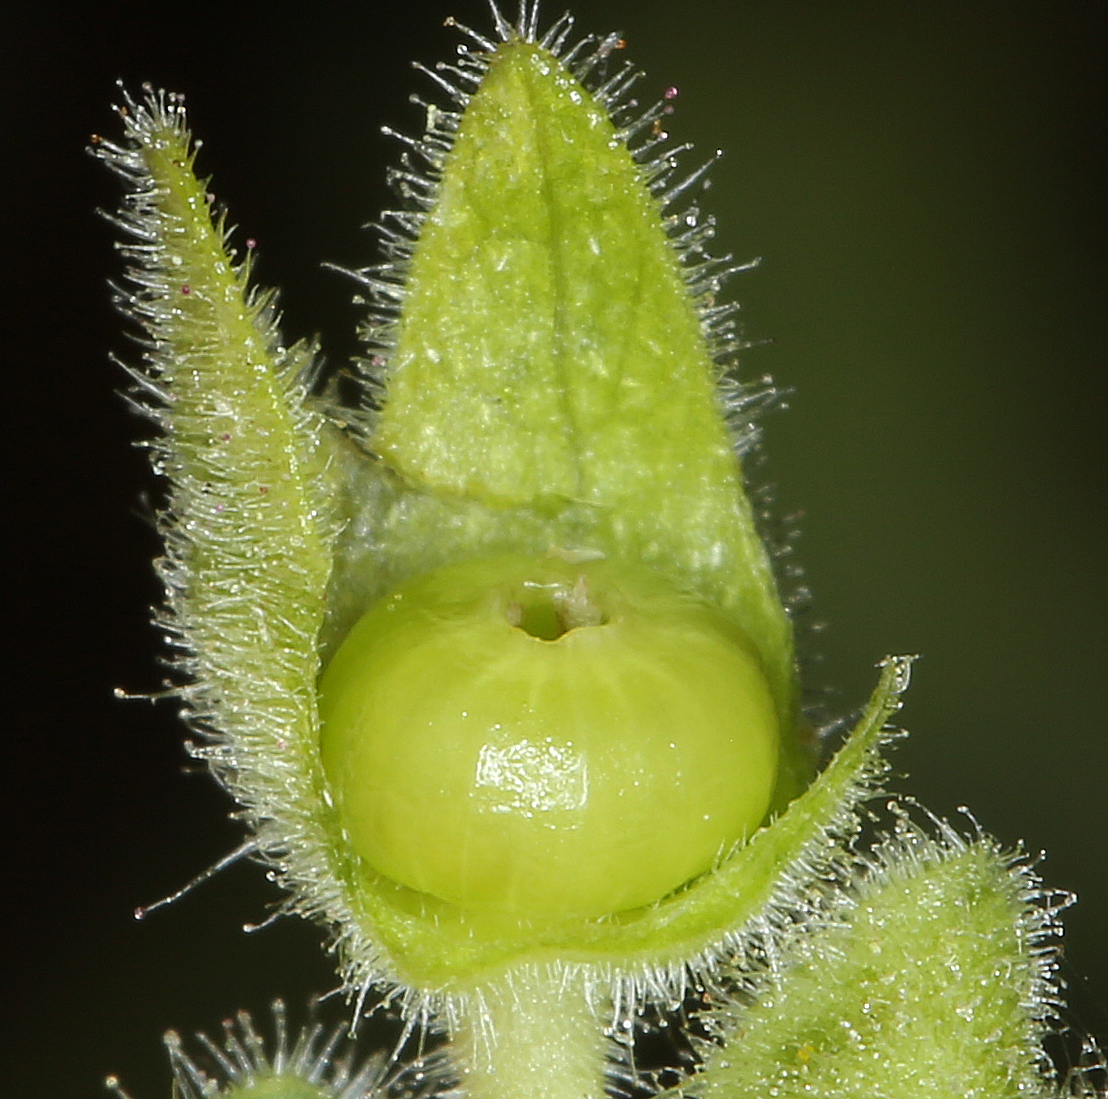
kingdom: Plantae
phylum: Tracheophyta
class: Magnoliopsida
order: Caryophyllales
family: Nyctaginaceae
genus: Mirabilis
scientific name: Mirabilis laevis
